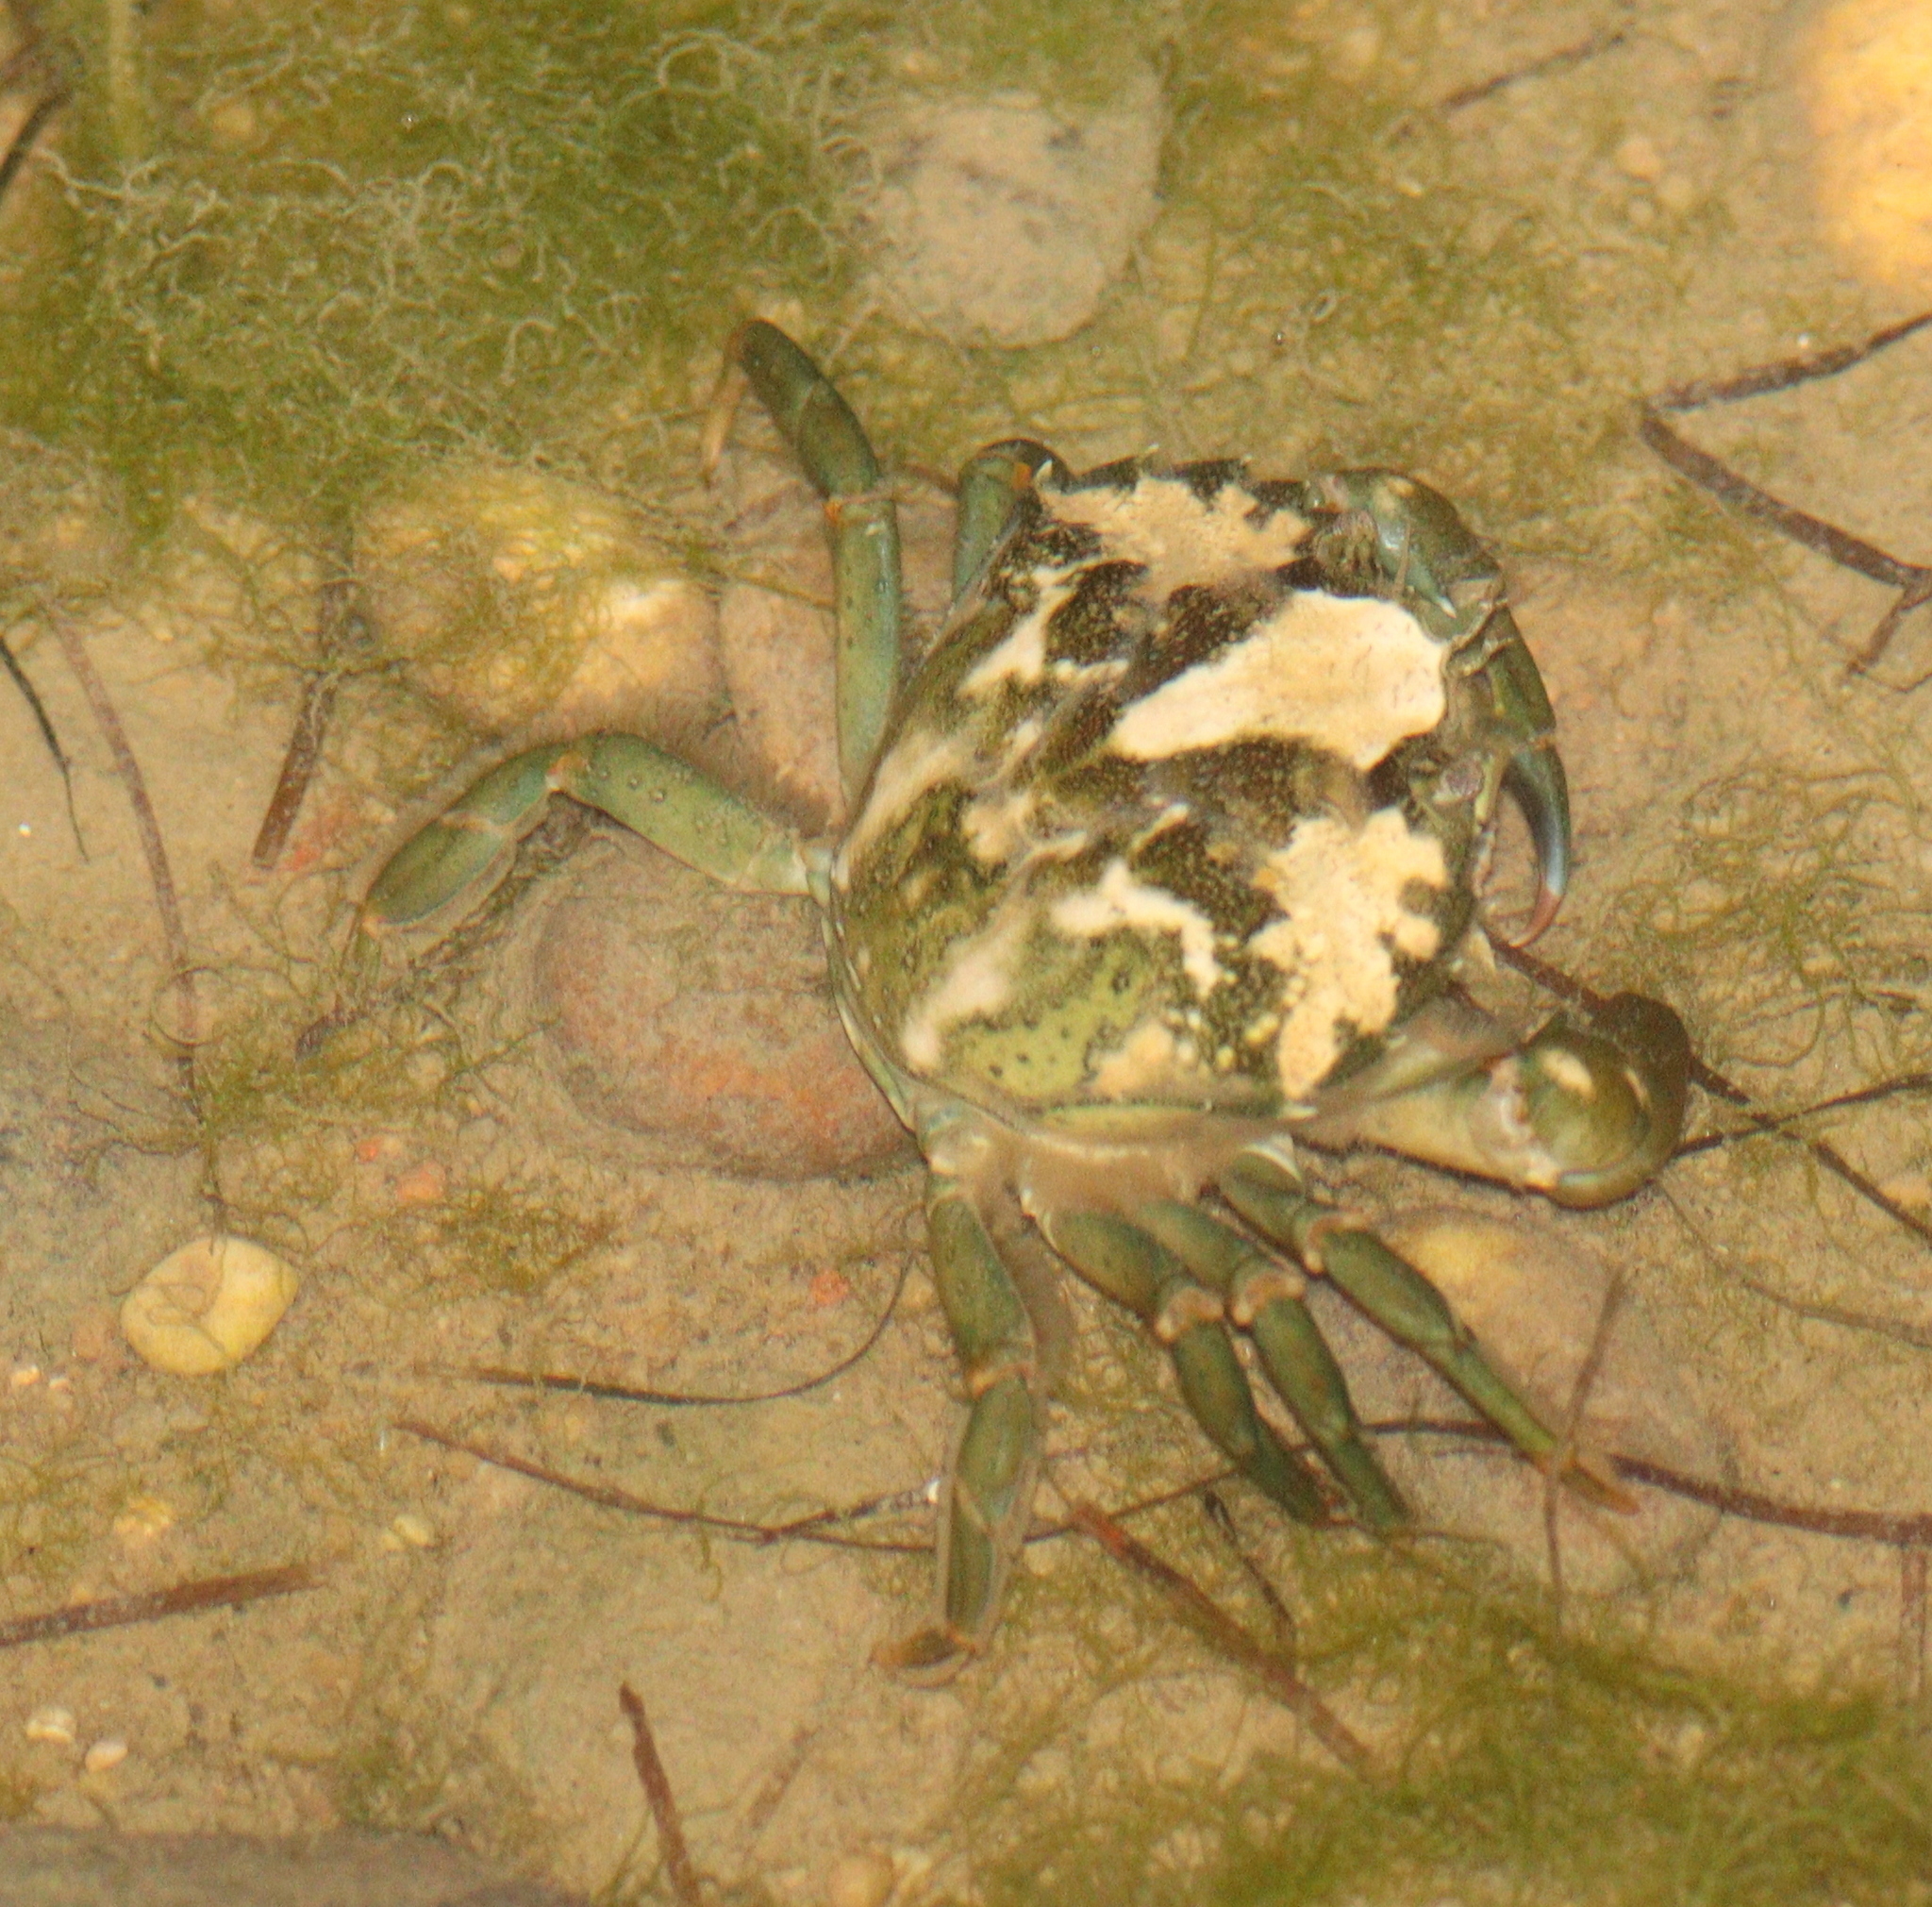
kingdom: Animalia
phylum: Arthropoda
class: Malacostraca
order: Decapoda
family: Carcinidae
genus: Carcinus
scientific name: Carcinus maenas
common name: European green crab
